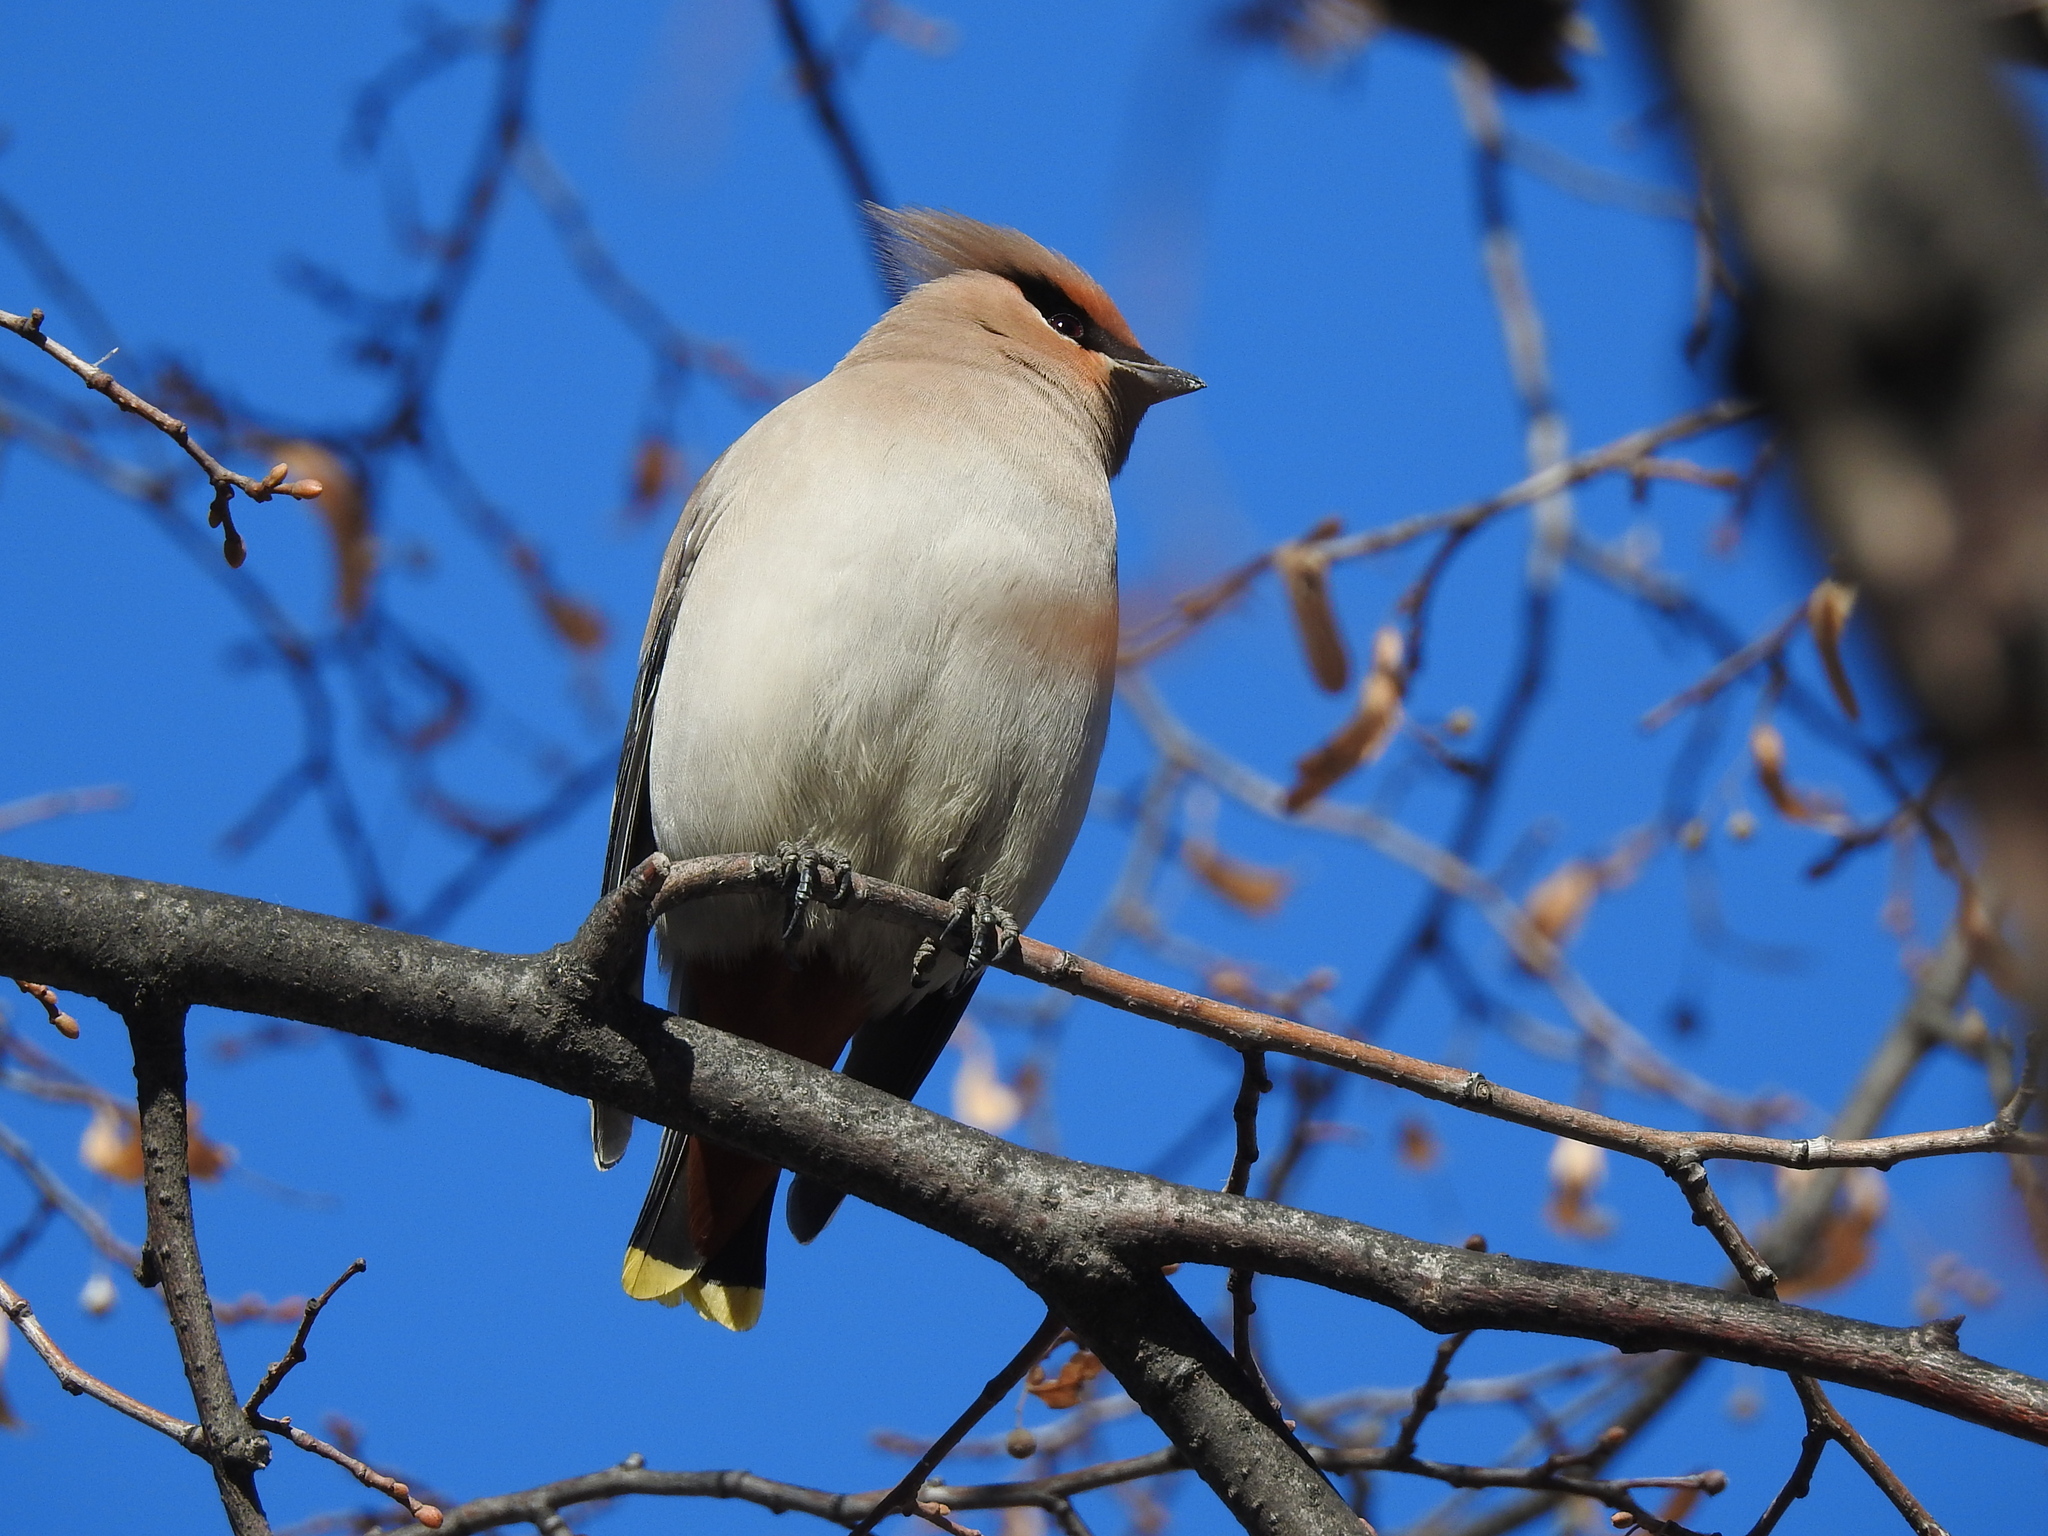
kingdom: Animalia
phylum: Chordata
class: Aves
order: Passeriformes
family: Bombycillidae
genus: Bombycilla
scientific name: Bombycilla garrulus
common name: Bohemian waxwing
